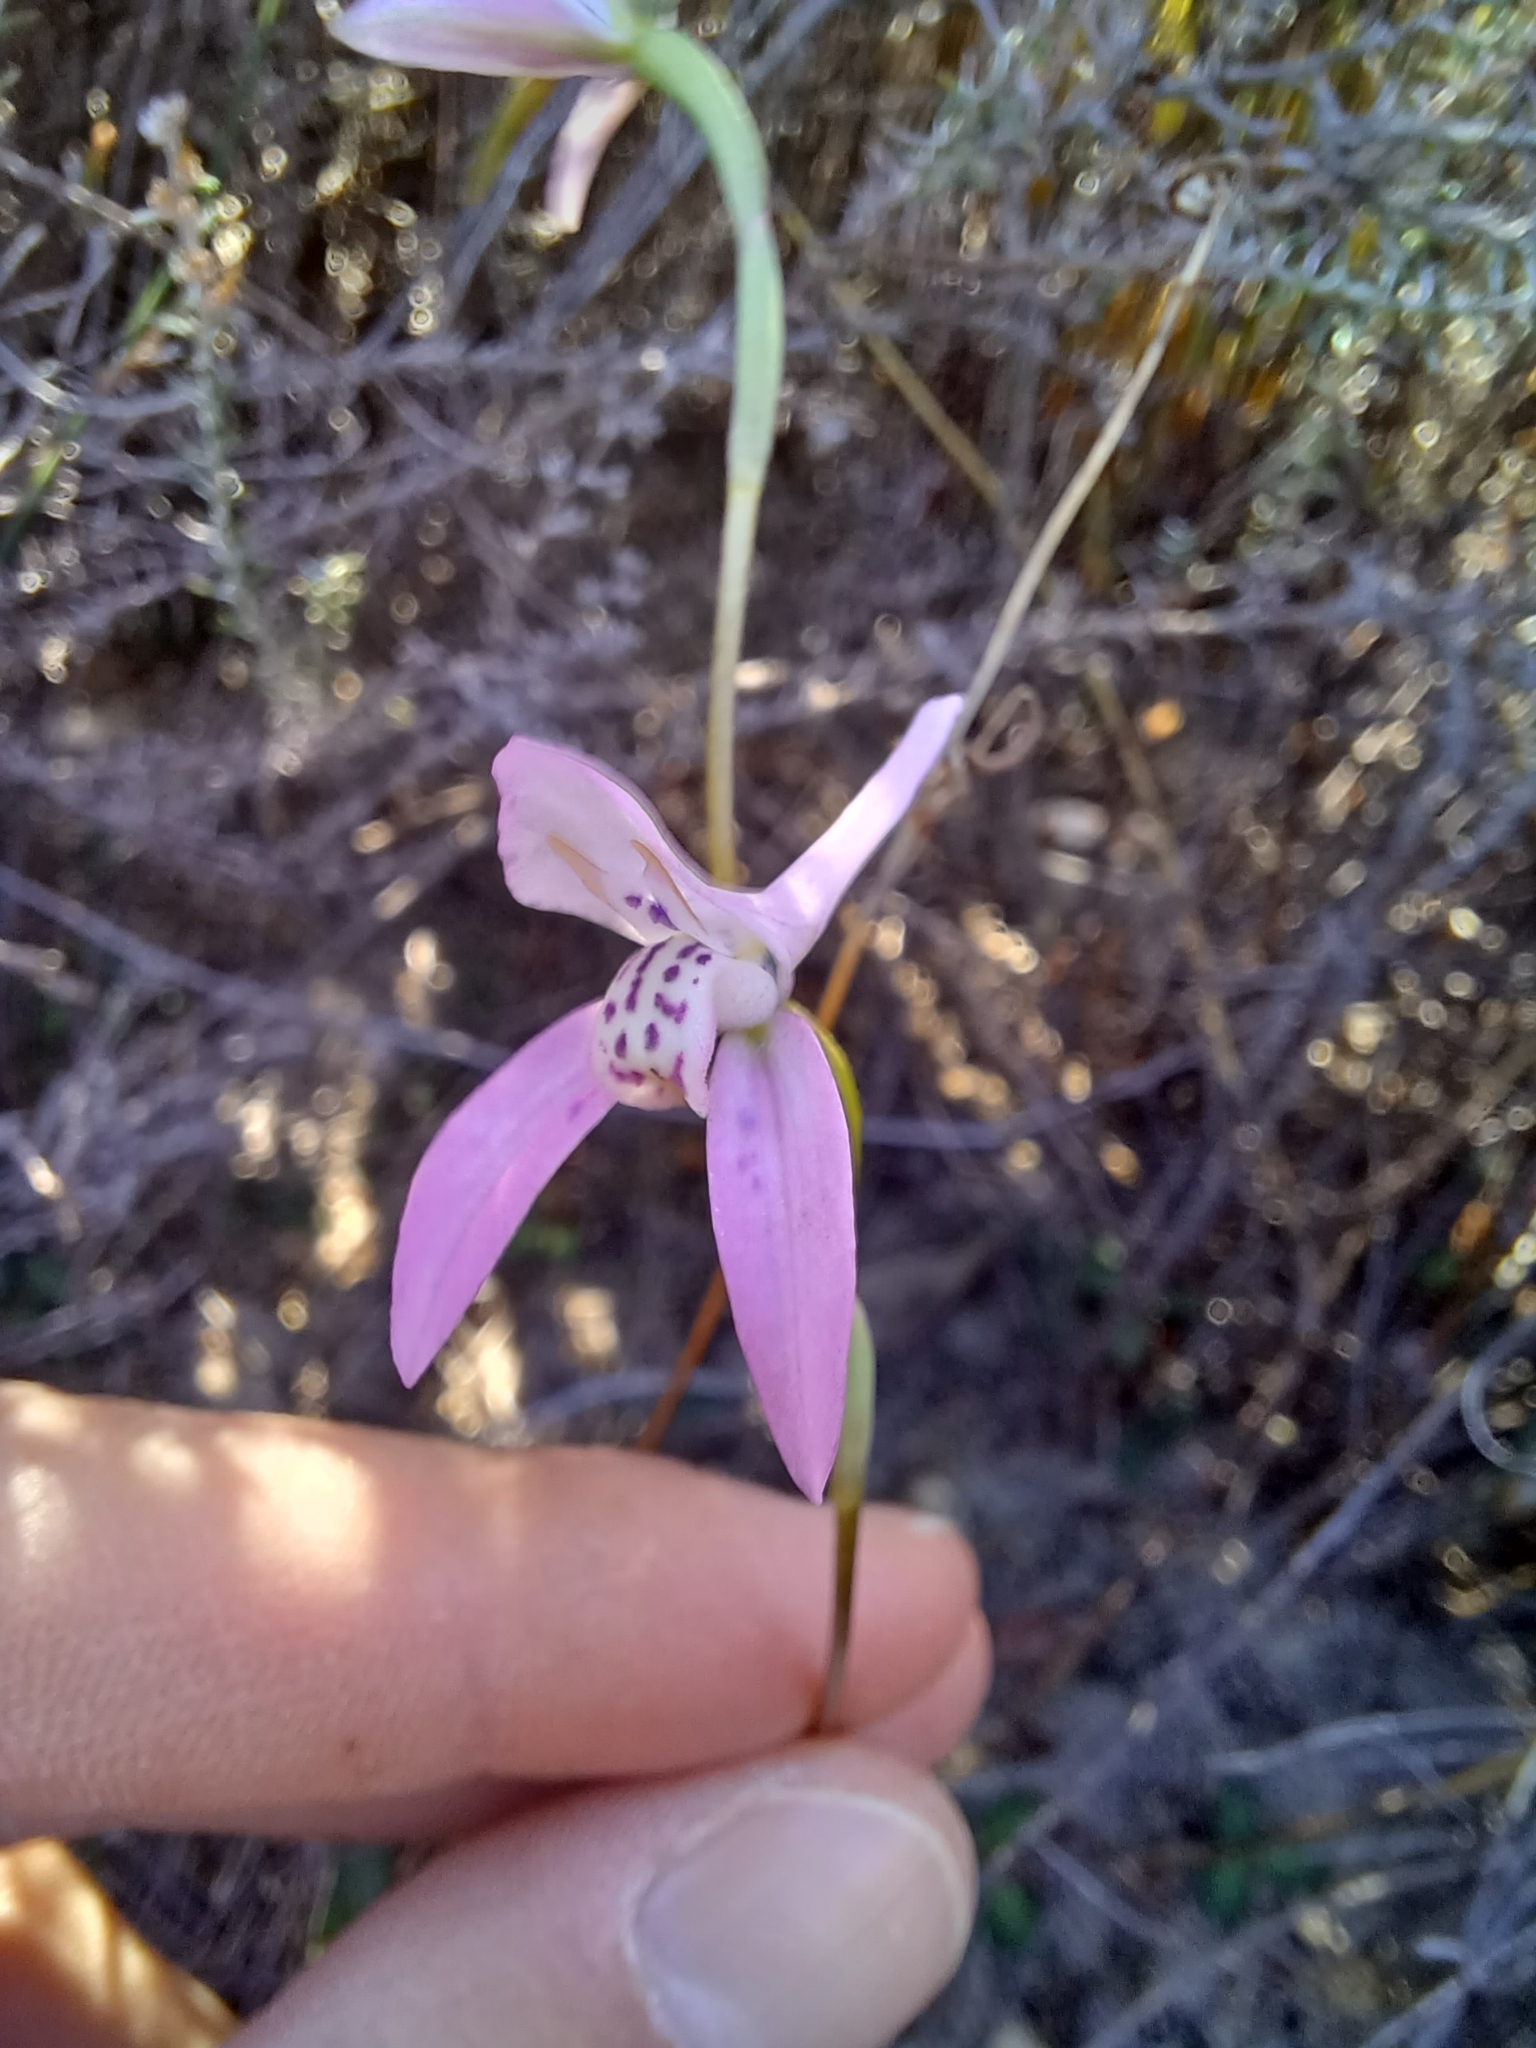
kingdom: Plantae
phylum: Tracheophyta
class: Liliopsida
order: Asparagales
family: Orchidaceae
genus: Disa
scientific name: Disa bifida
